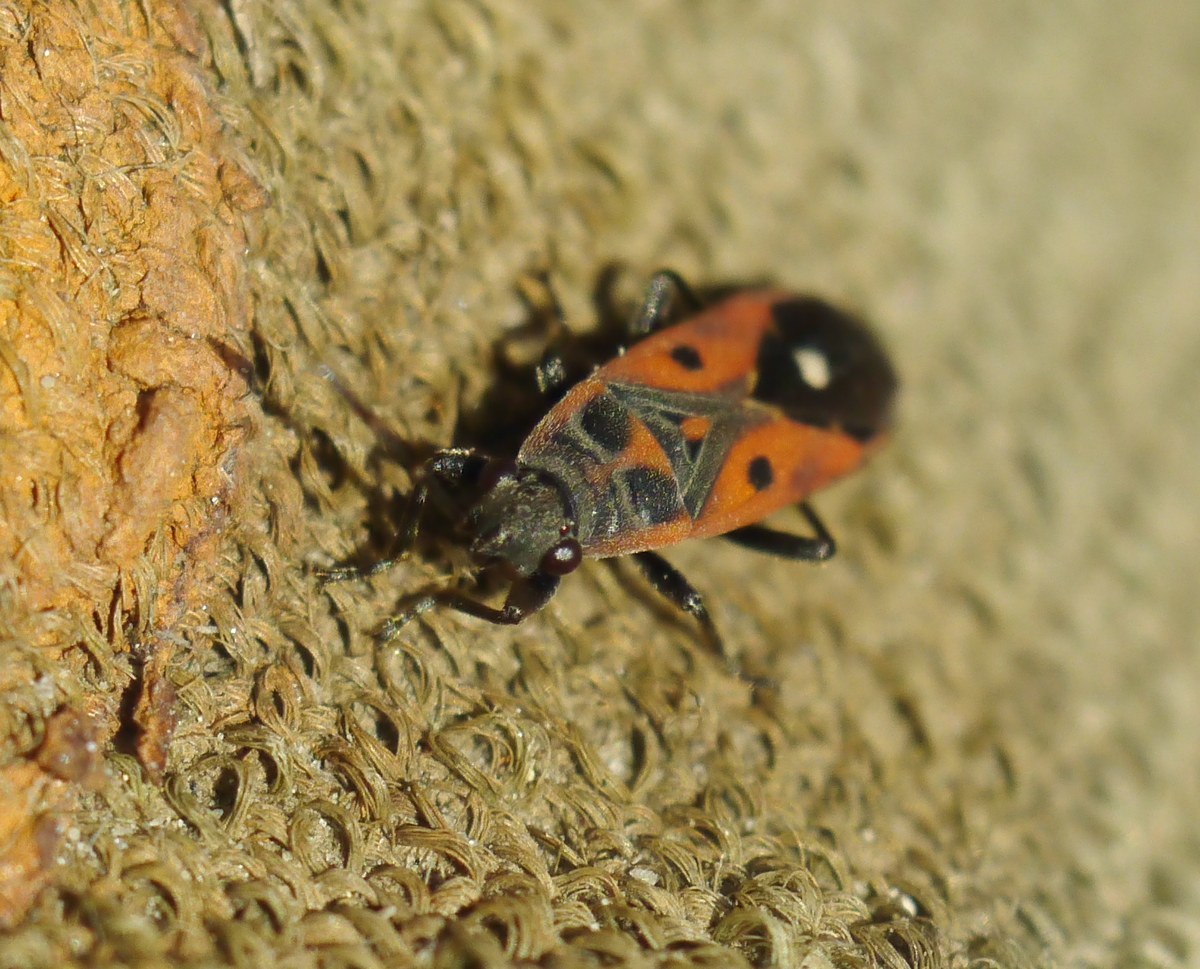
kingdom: Animalia
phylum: Arthropoda
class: Insecta
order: Hemiptera
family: Lygaeidae
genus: Melanocoryphus
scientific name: Melanocoryphus tristrami
